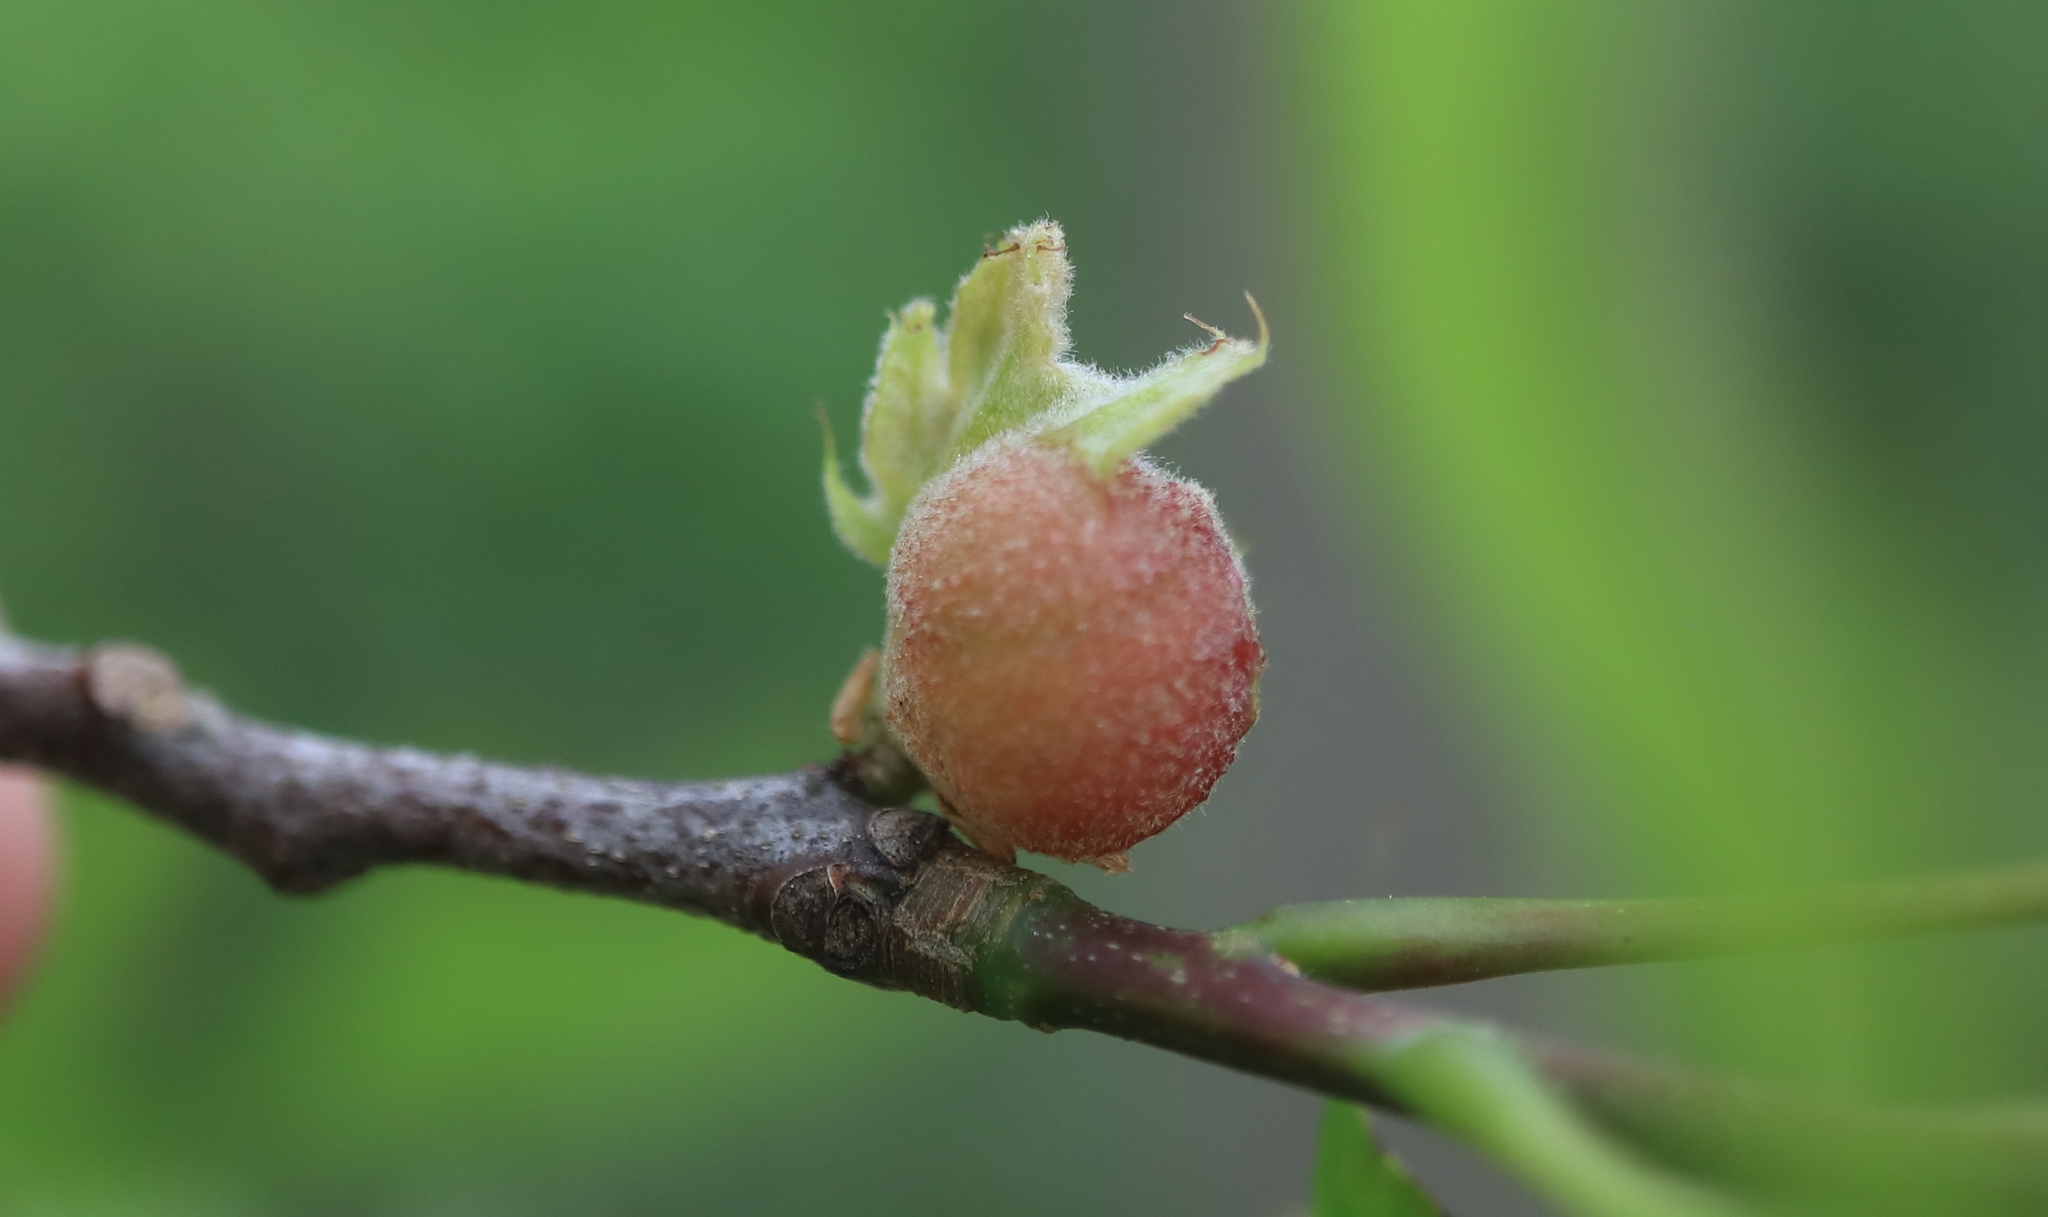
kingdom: Animalia
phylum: Arthropoda
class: Insecta
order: Hymenoptera
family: Cynipidae
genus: Dryocosmus
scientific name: Dryocosmus quercuspalustris
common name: Succulent oak gall wasp
